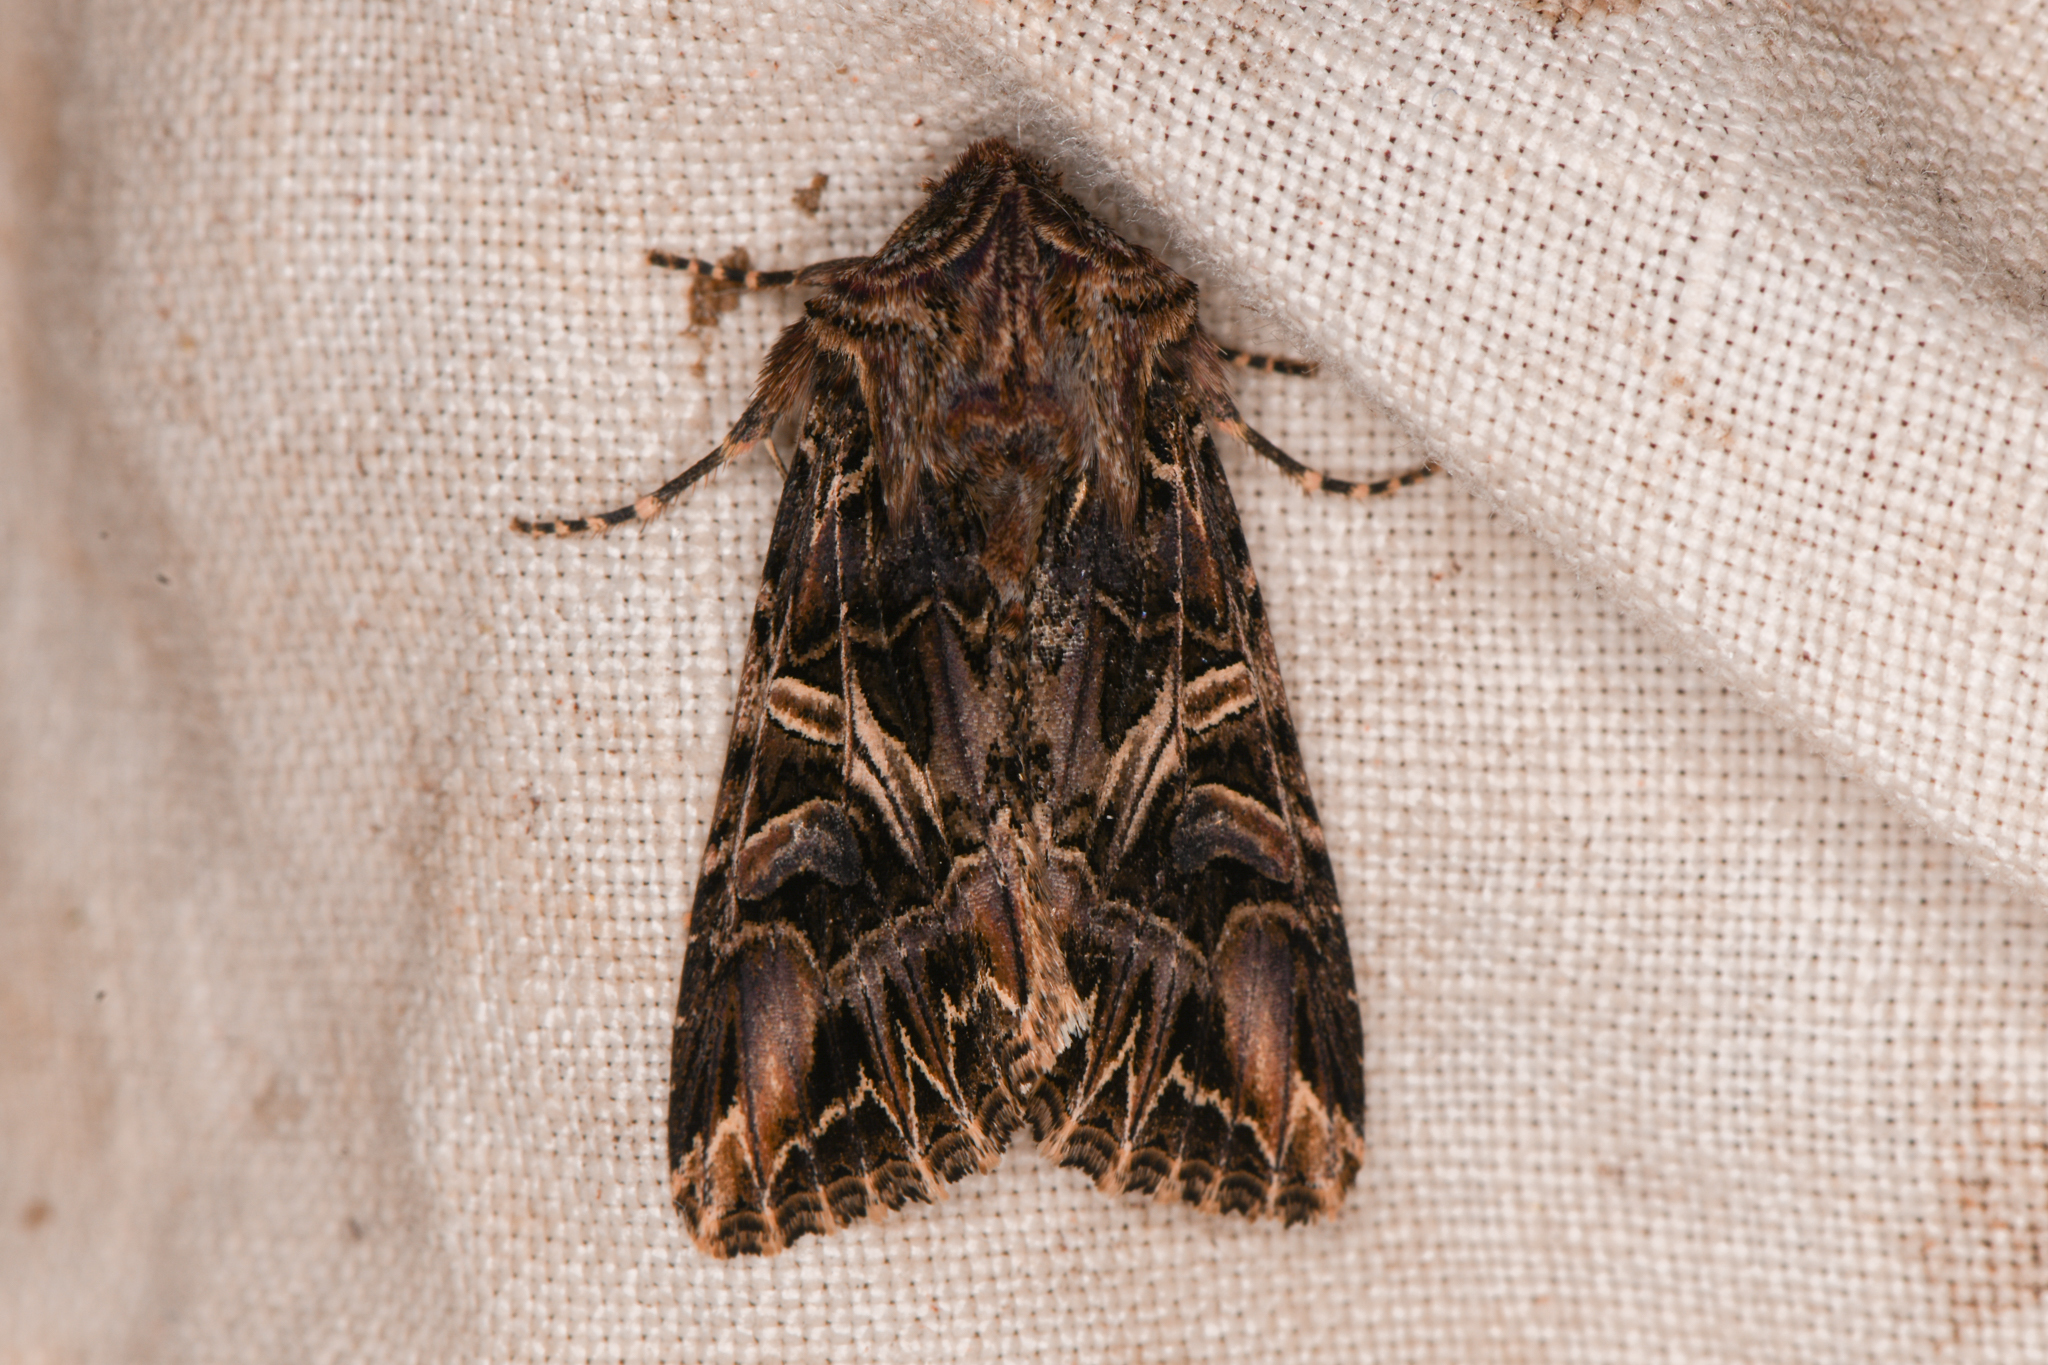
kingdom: Animalia
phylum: Arthropoda
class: Insecta
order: Lepidoptera
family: Noctuidae
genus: Anarta
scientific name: Anarta farnhami
